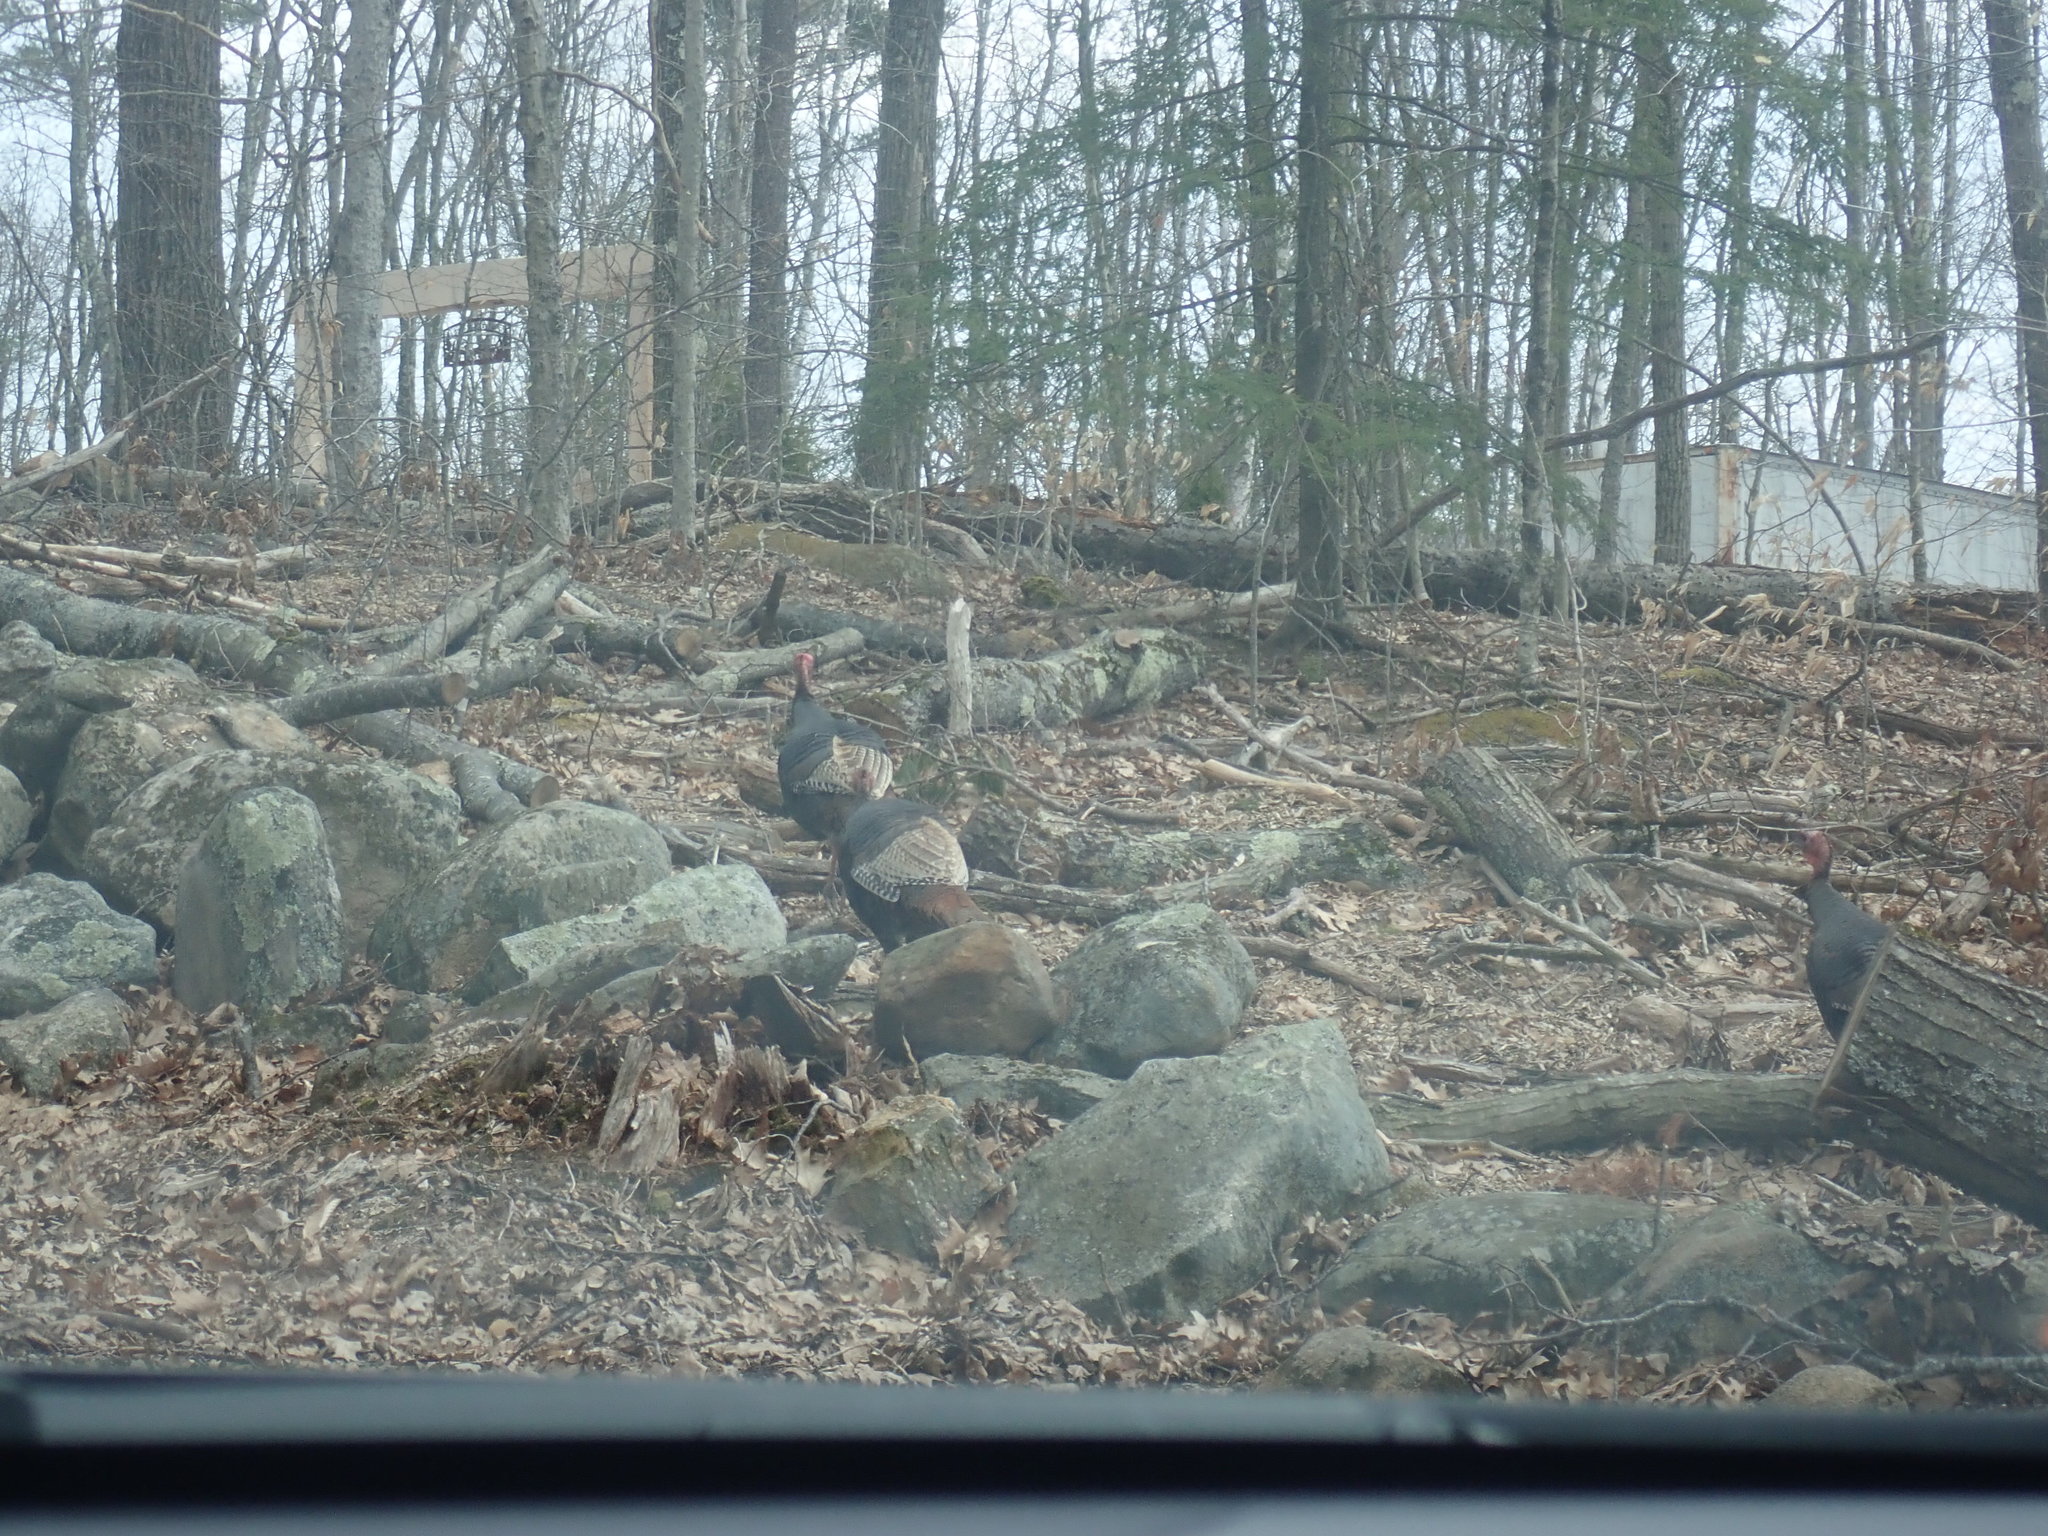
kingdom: Animalia
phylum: Chordata
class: Aves
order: Galliformes
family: Phasianidae
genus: Meleagris
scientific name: Meleagris gallopavo
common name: Wild turkey
